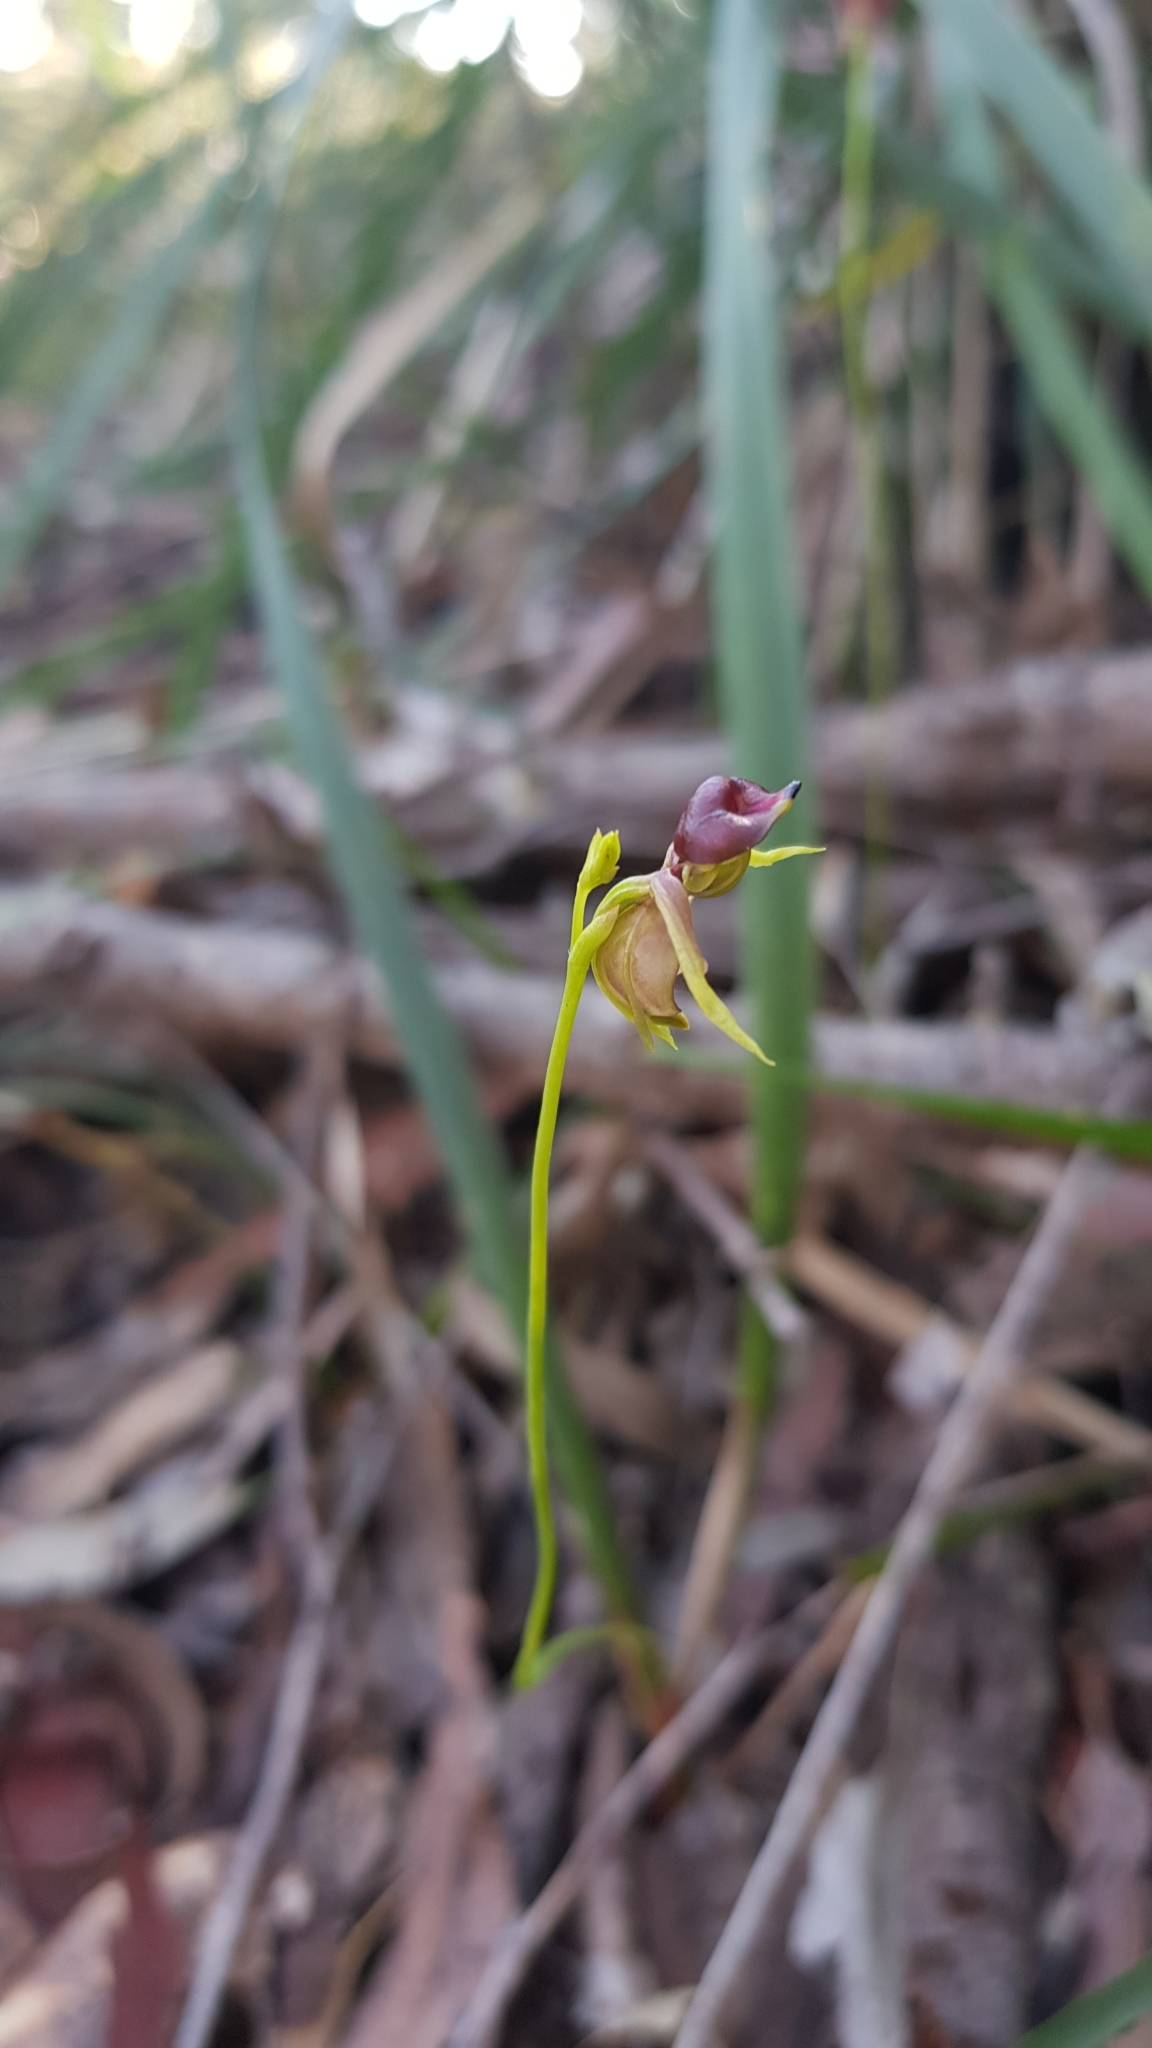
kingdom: Plantae
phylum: Tracheophyta
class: Liliopsida
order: Asparagales
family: Orchidaceae
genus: Caleana
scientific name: Caleana major
